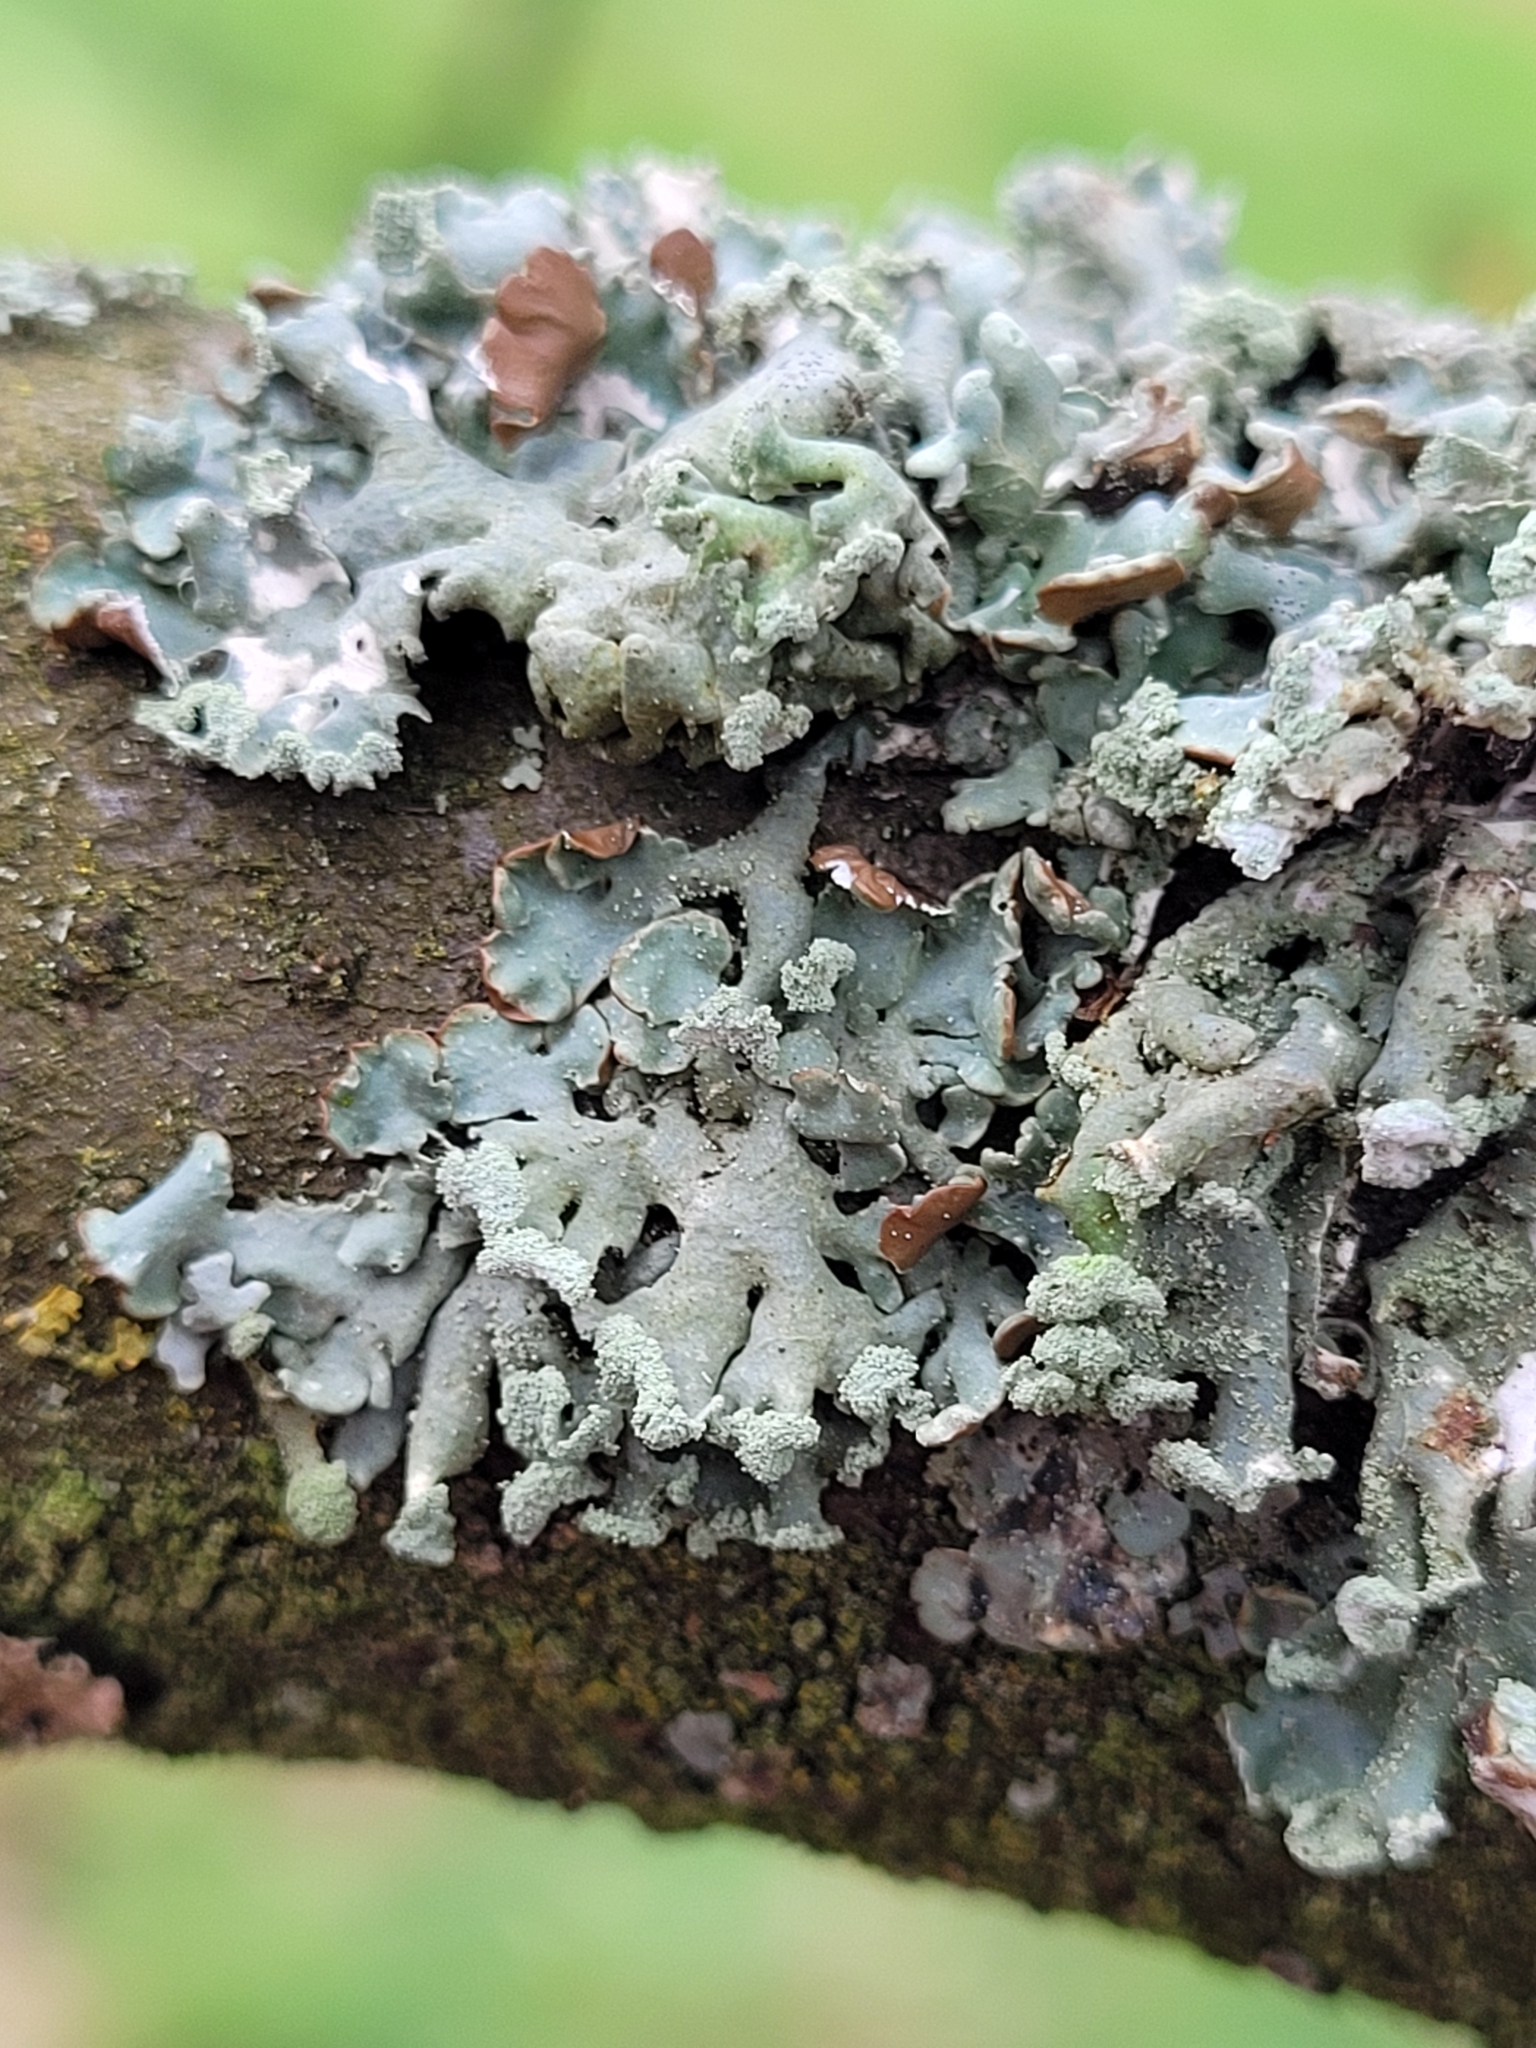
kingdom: Fungi
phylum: Ascomycota
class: Lecanoromycetes
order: Lecanorales
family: Parmeliaceae
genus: Hypogymnia
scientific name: Hypogymnia physodes
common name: Dark crottle
